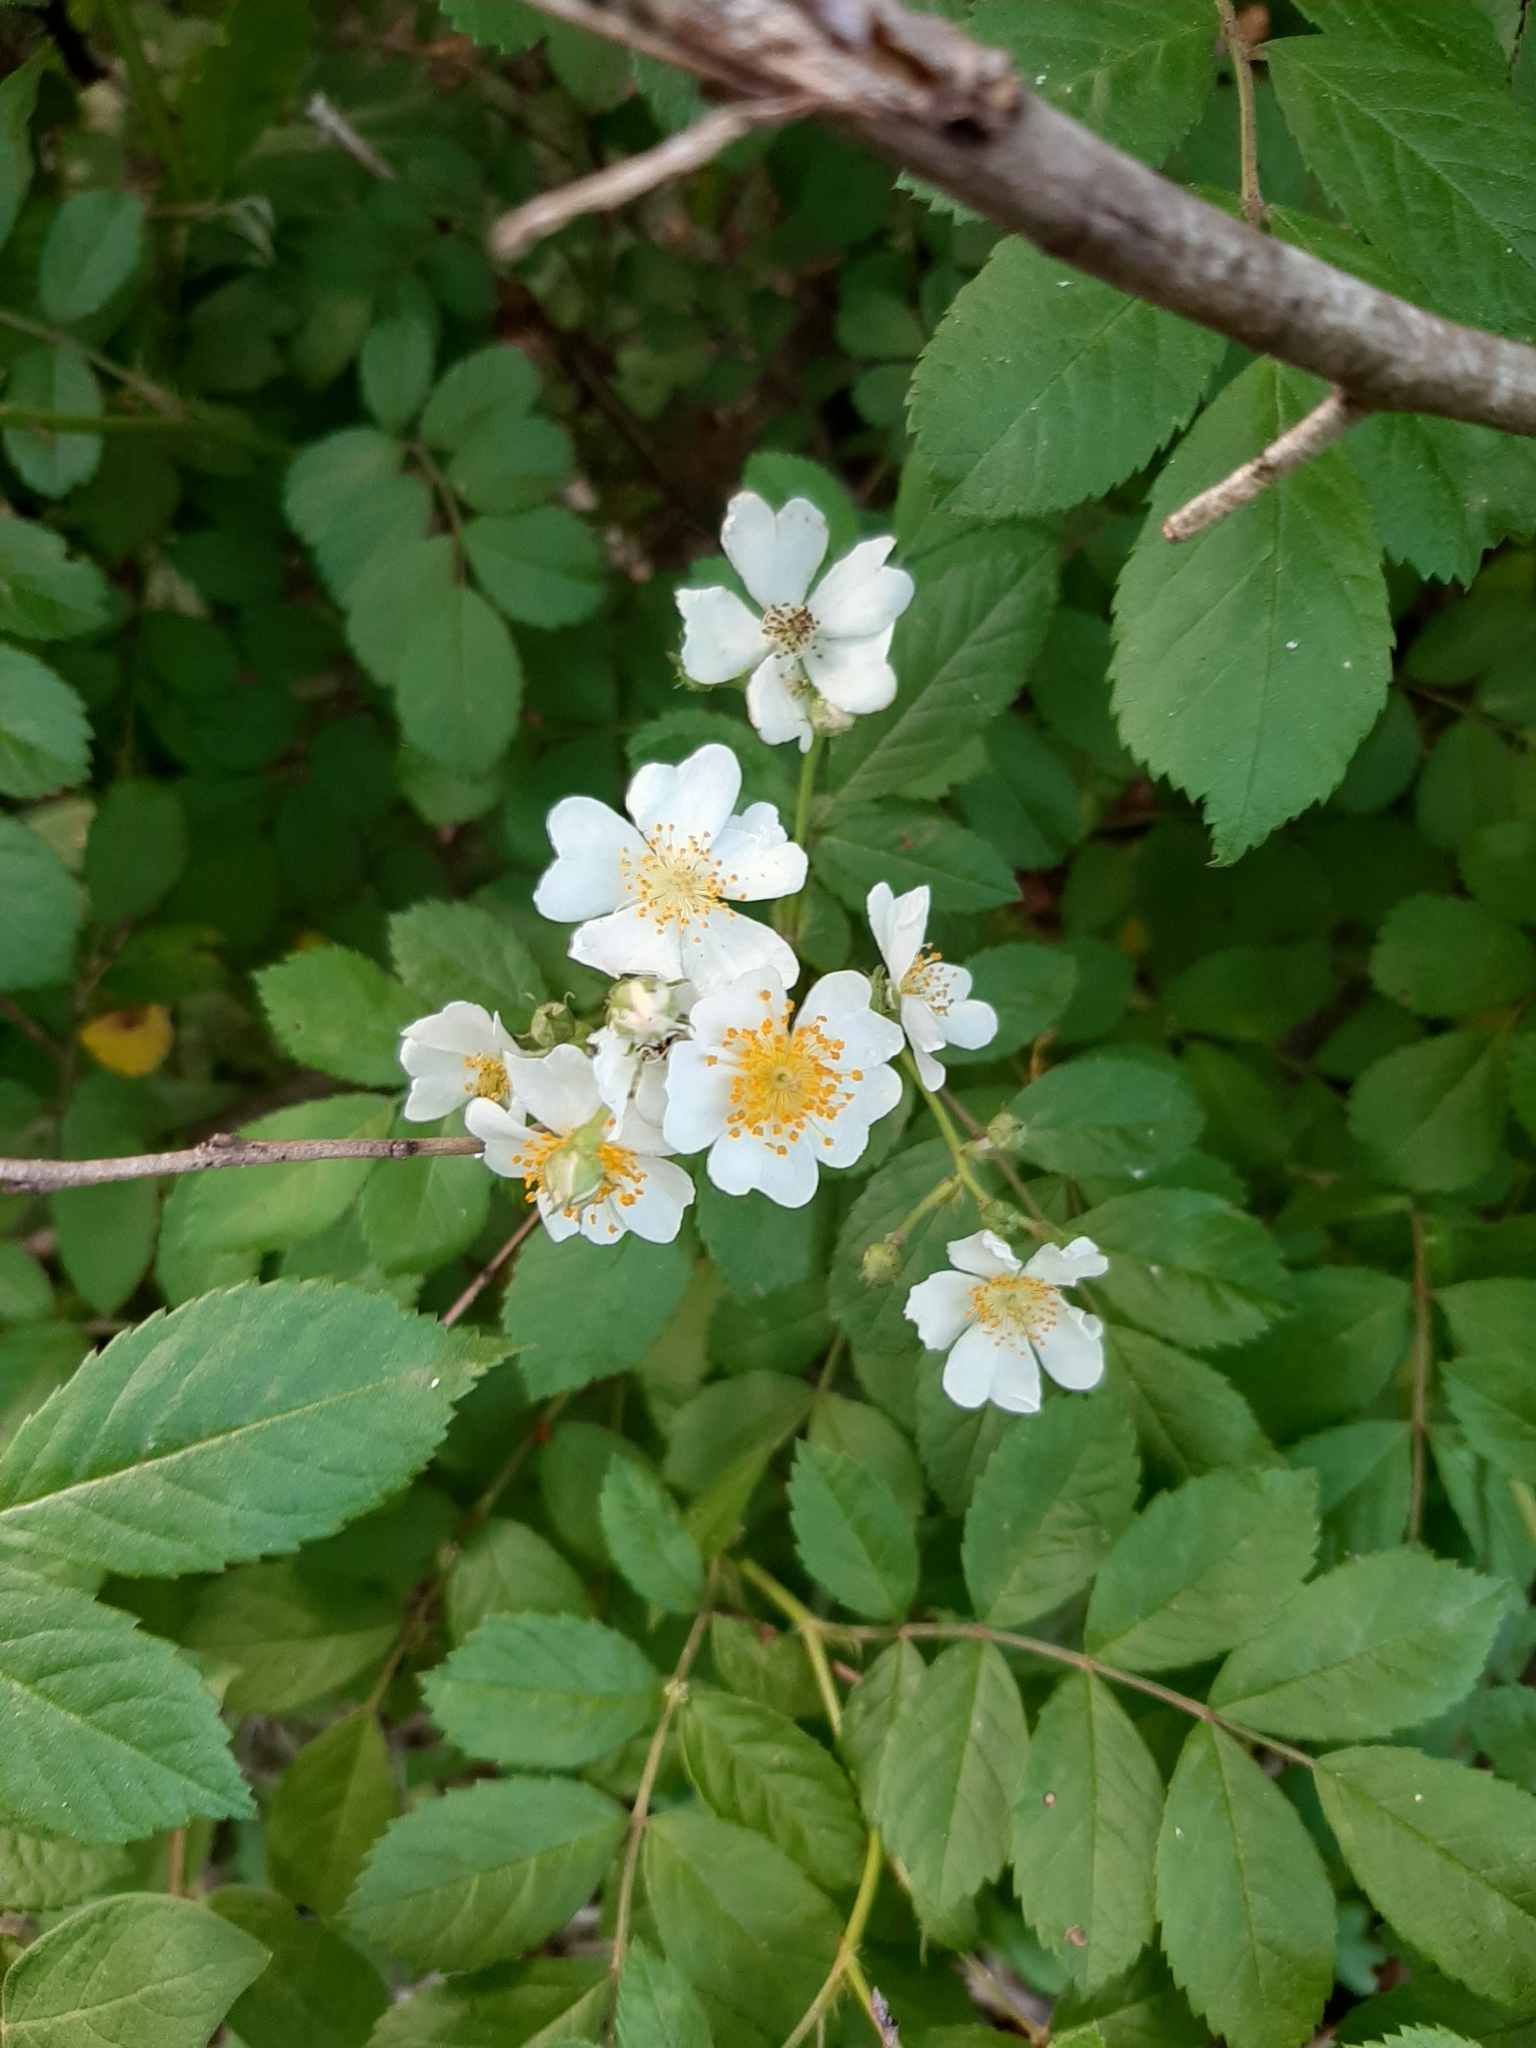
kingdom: Plantae
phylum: Tracheophyta
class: Magnoliopsida
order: Rosales
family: Rosaceae
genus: Rosa
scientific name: Rosa multiflora
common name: Multiflora rose
